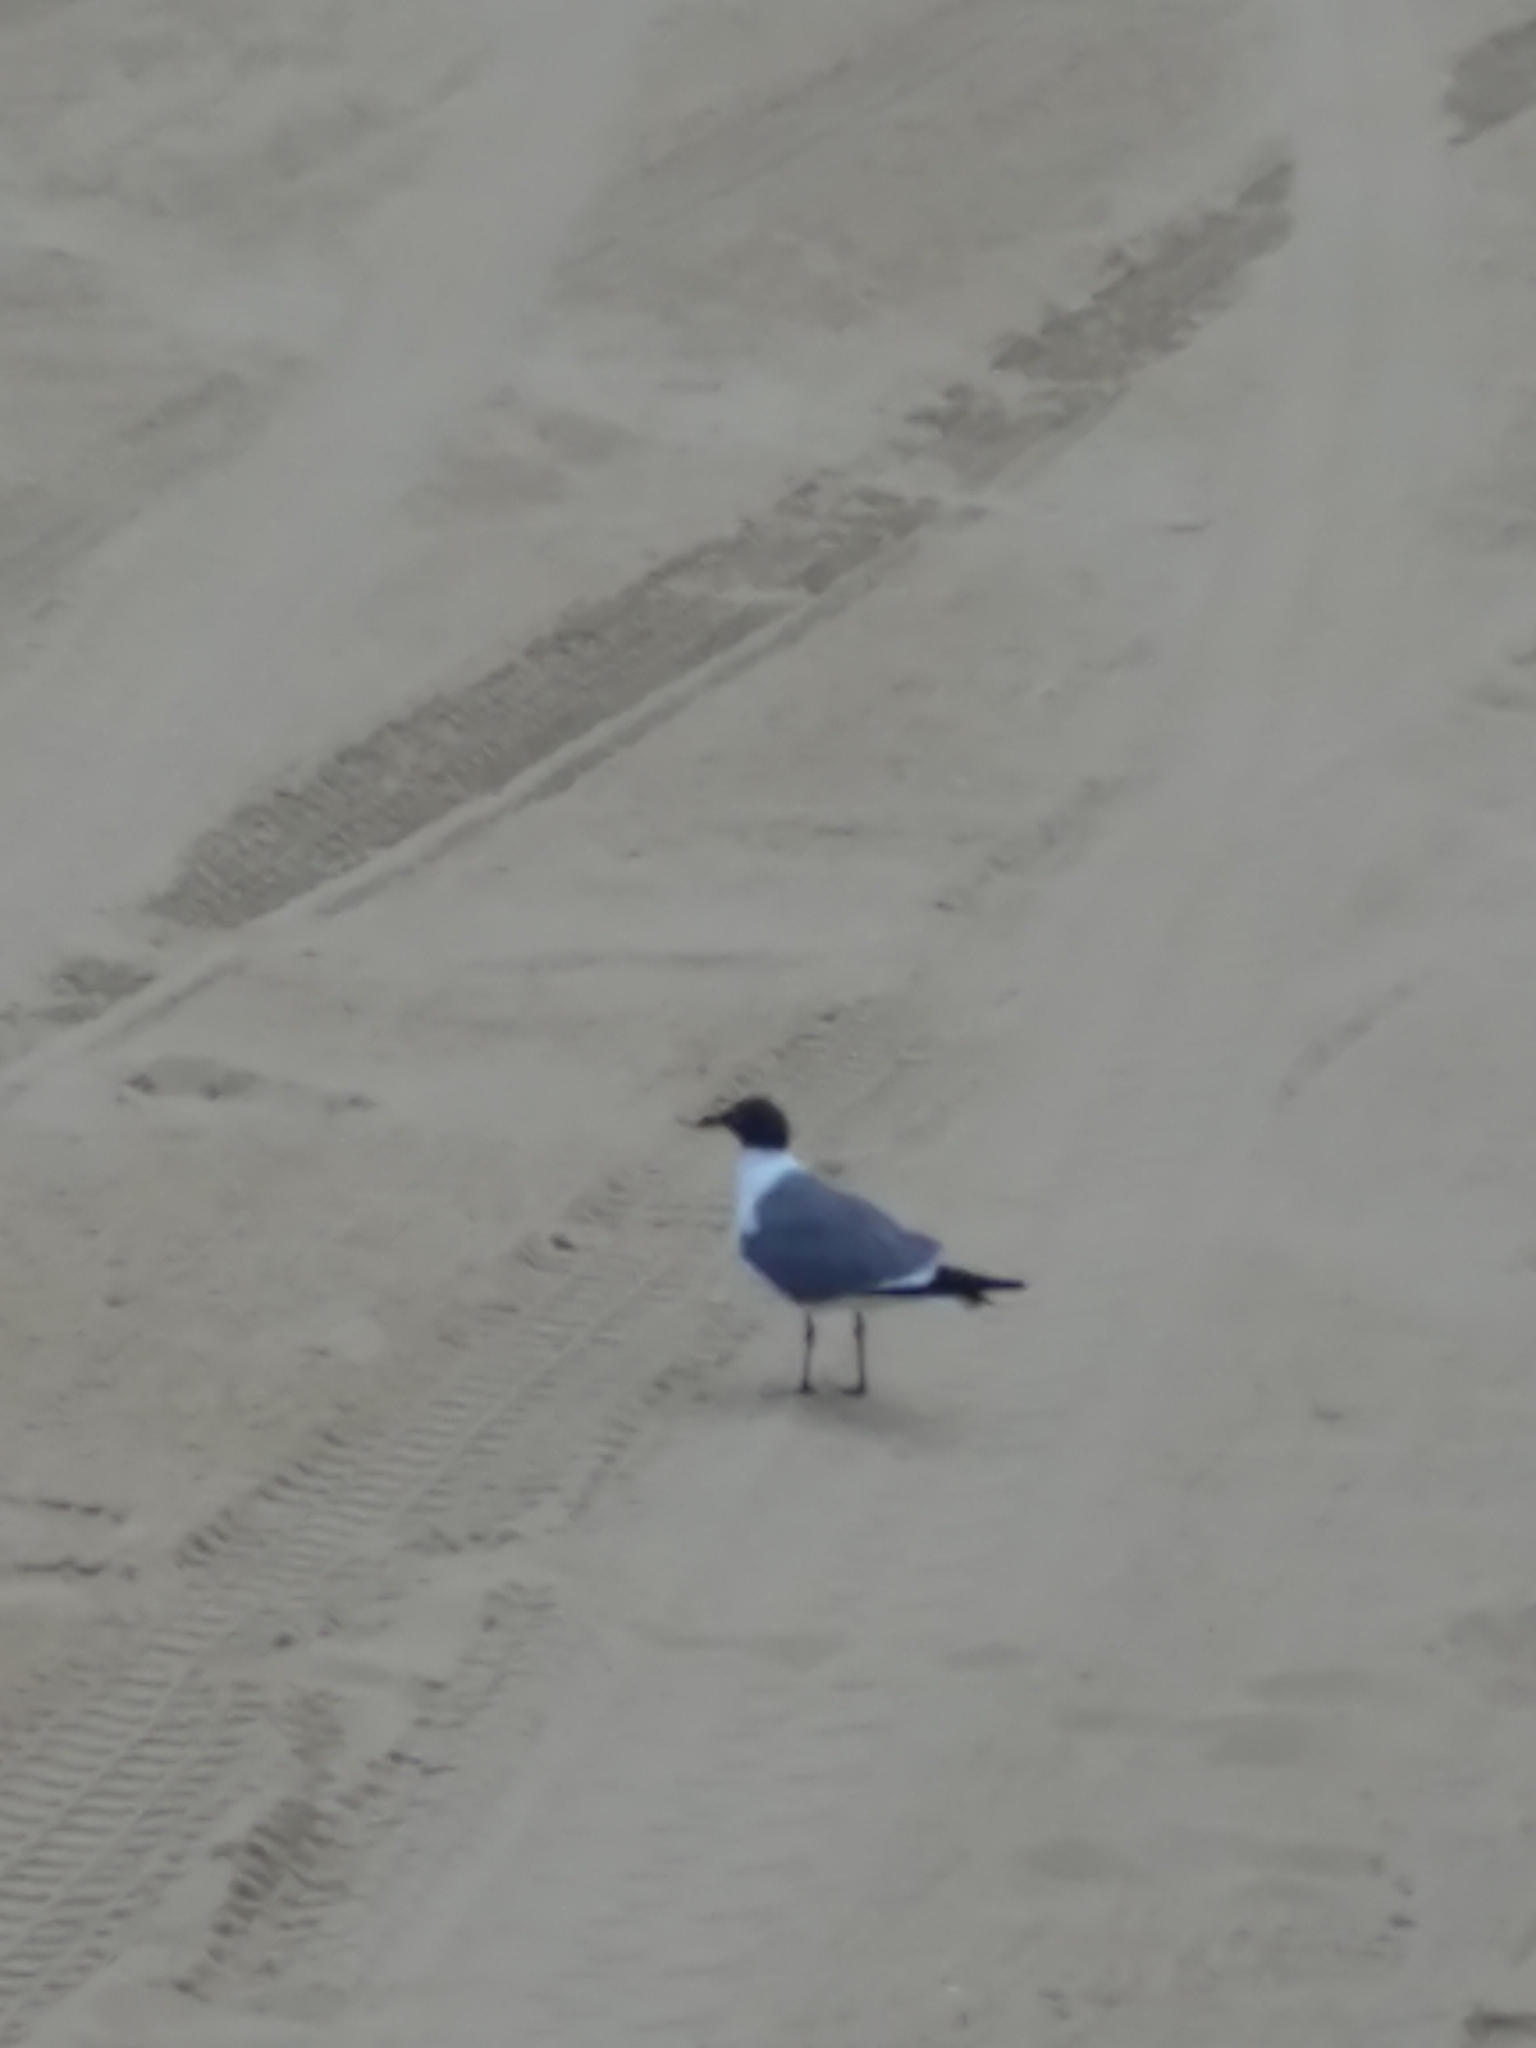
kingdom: Animalia
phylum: Chordata
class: Aves
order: Charadriiformes
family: Laridae
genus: Leucophaeus
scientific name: Leucophaeus atricilla
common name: Laughing gull
